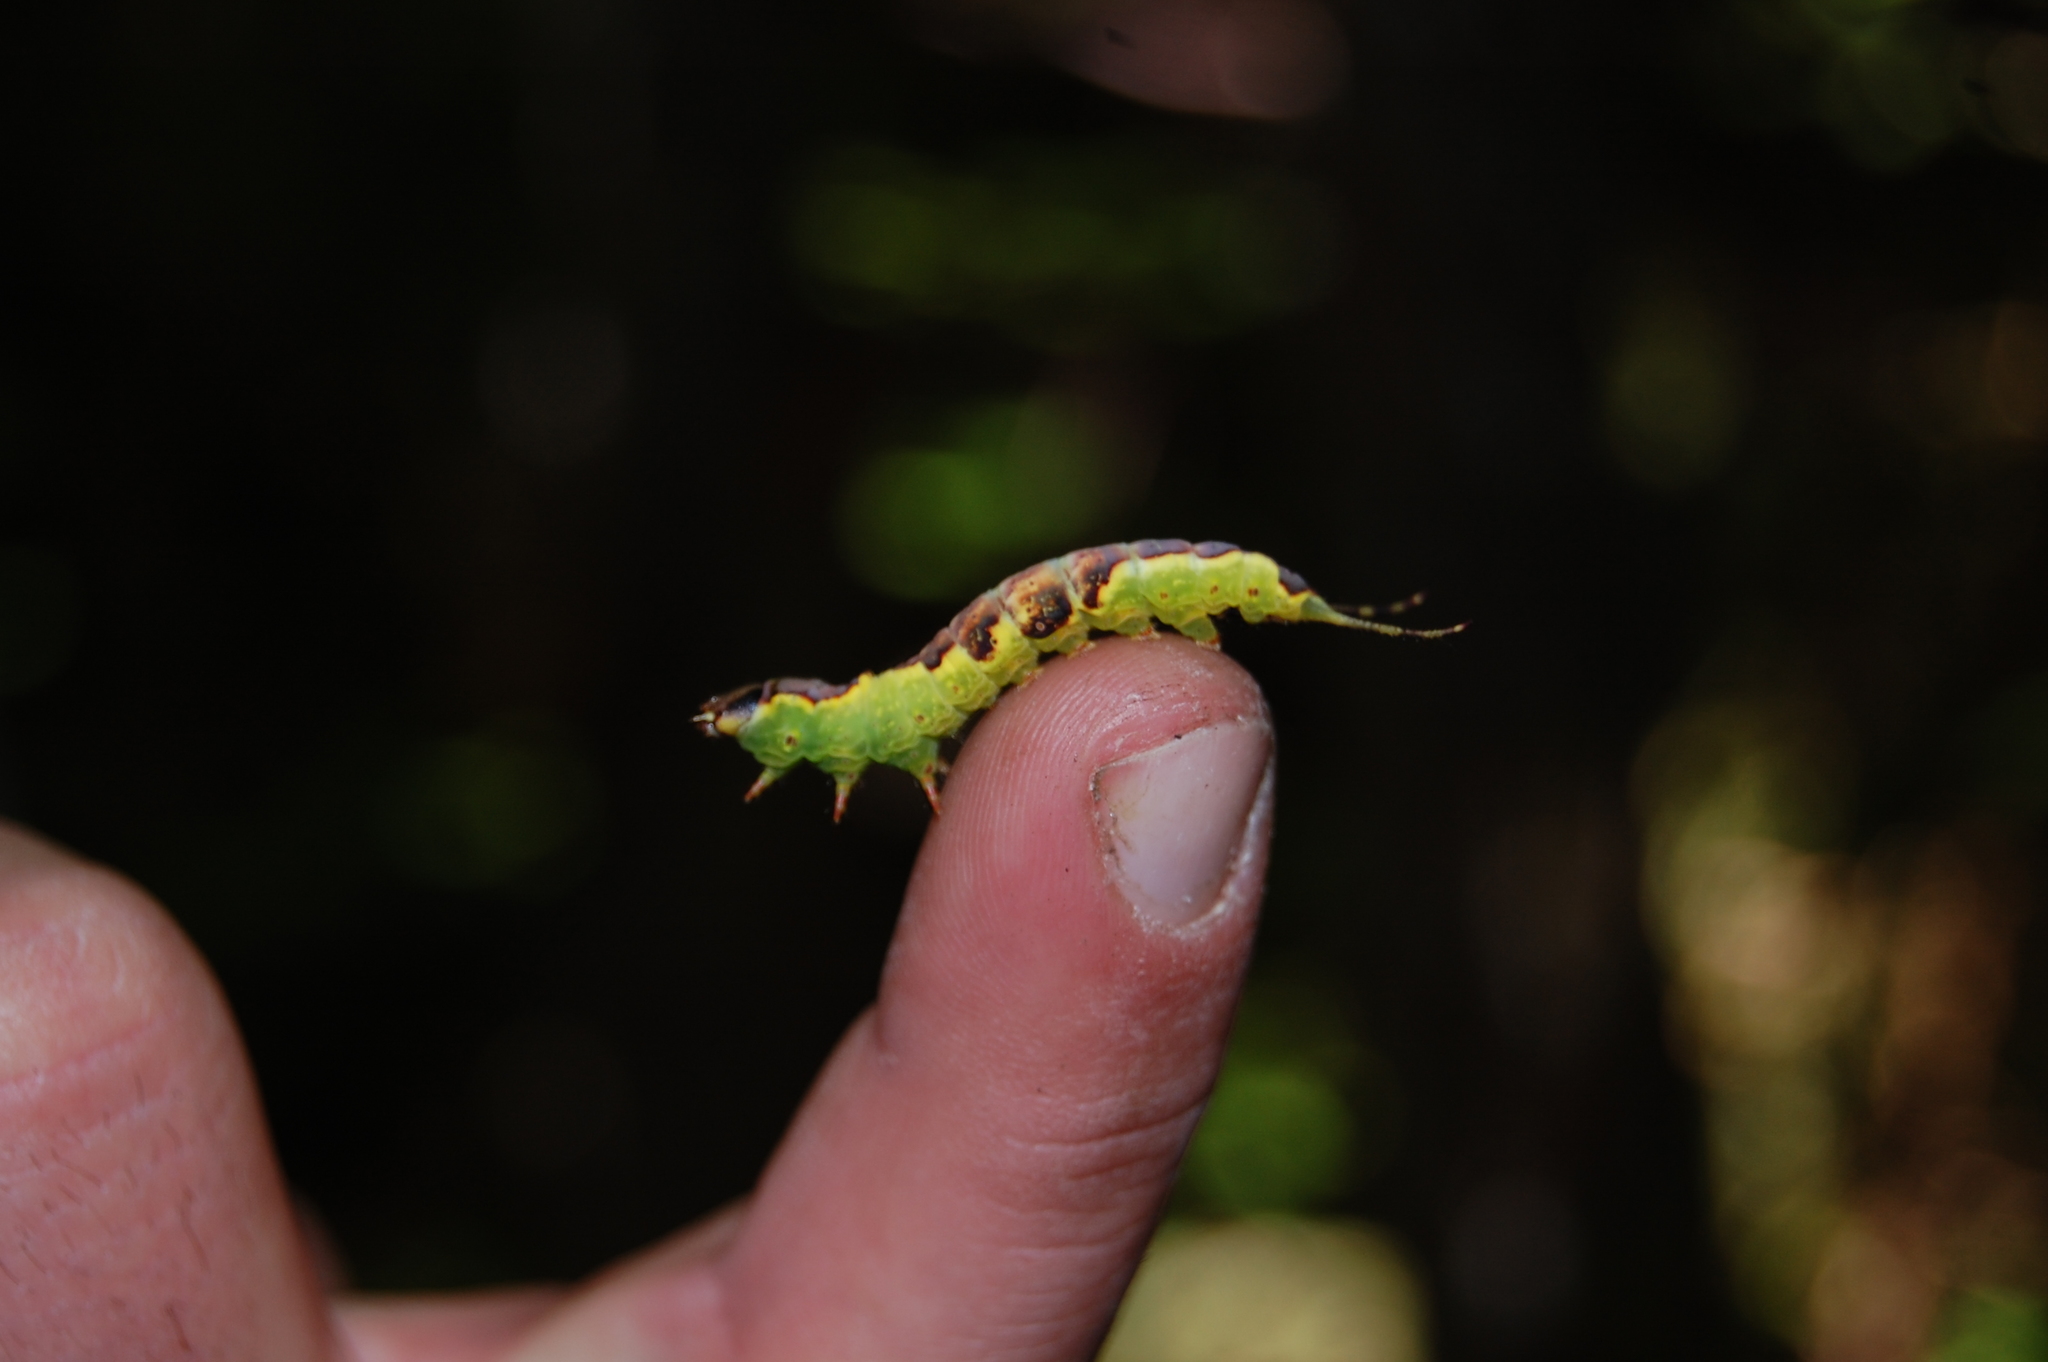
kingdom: Animalia
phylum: Arthropoda
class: Insecta
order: Lepidoptera
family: Notodontidae
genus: Furcula
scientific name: Furcula bifida
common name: Poplar kitten
